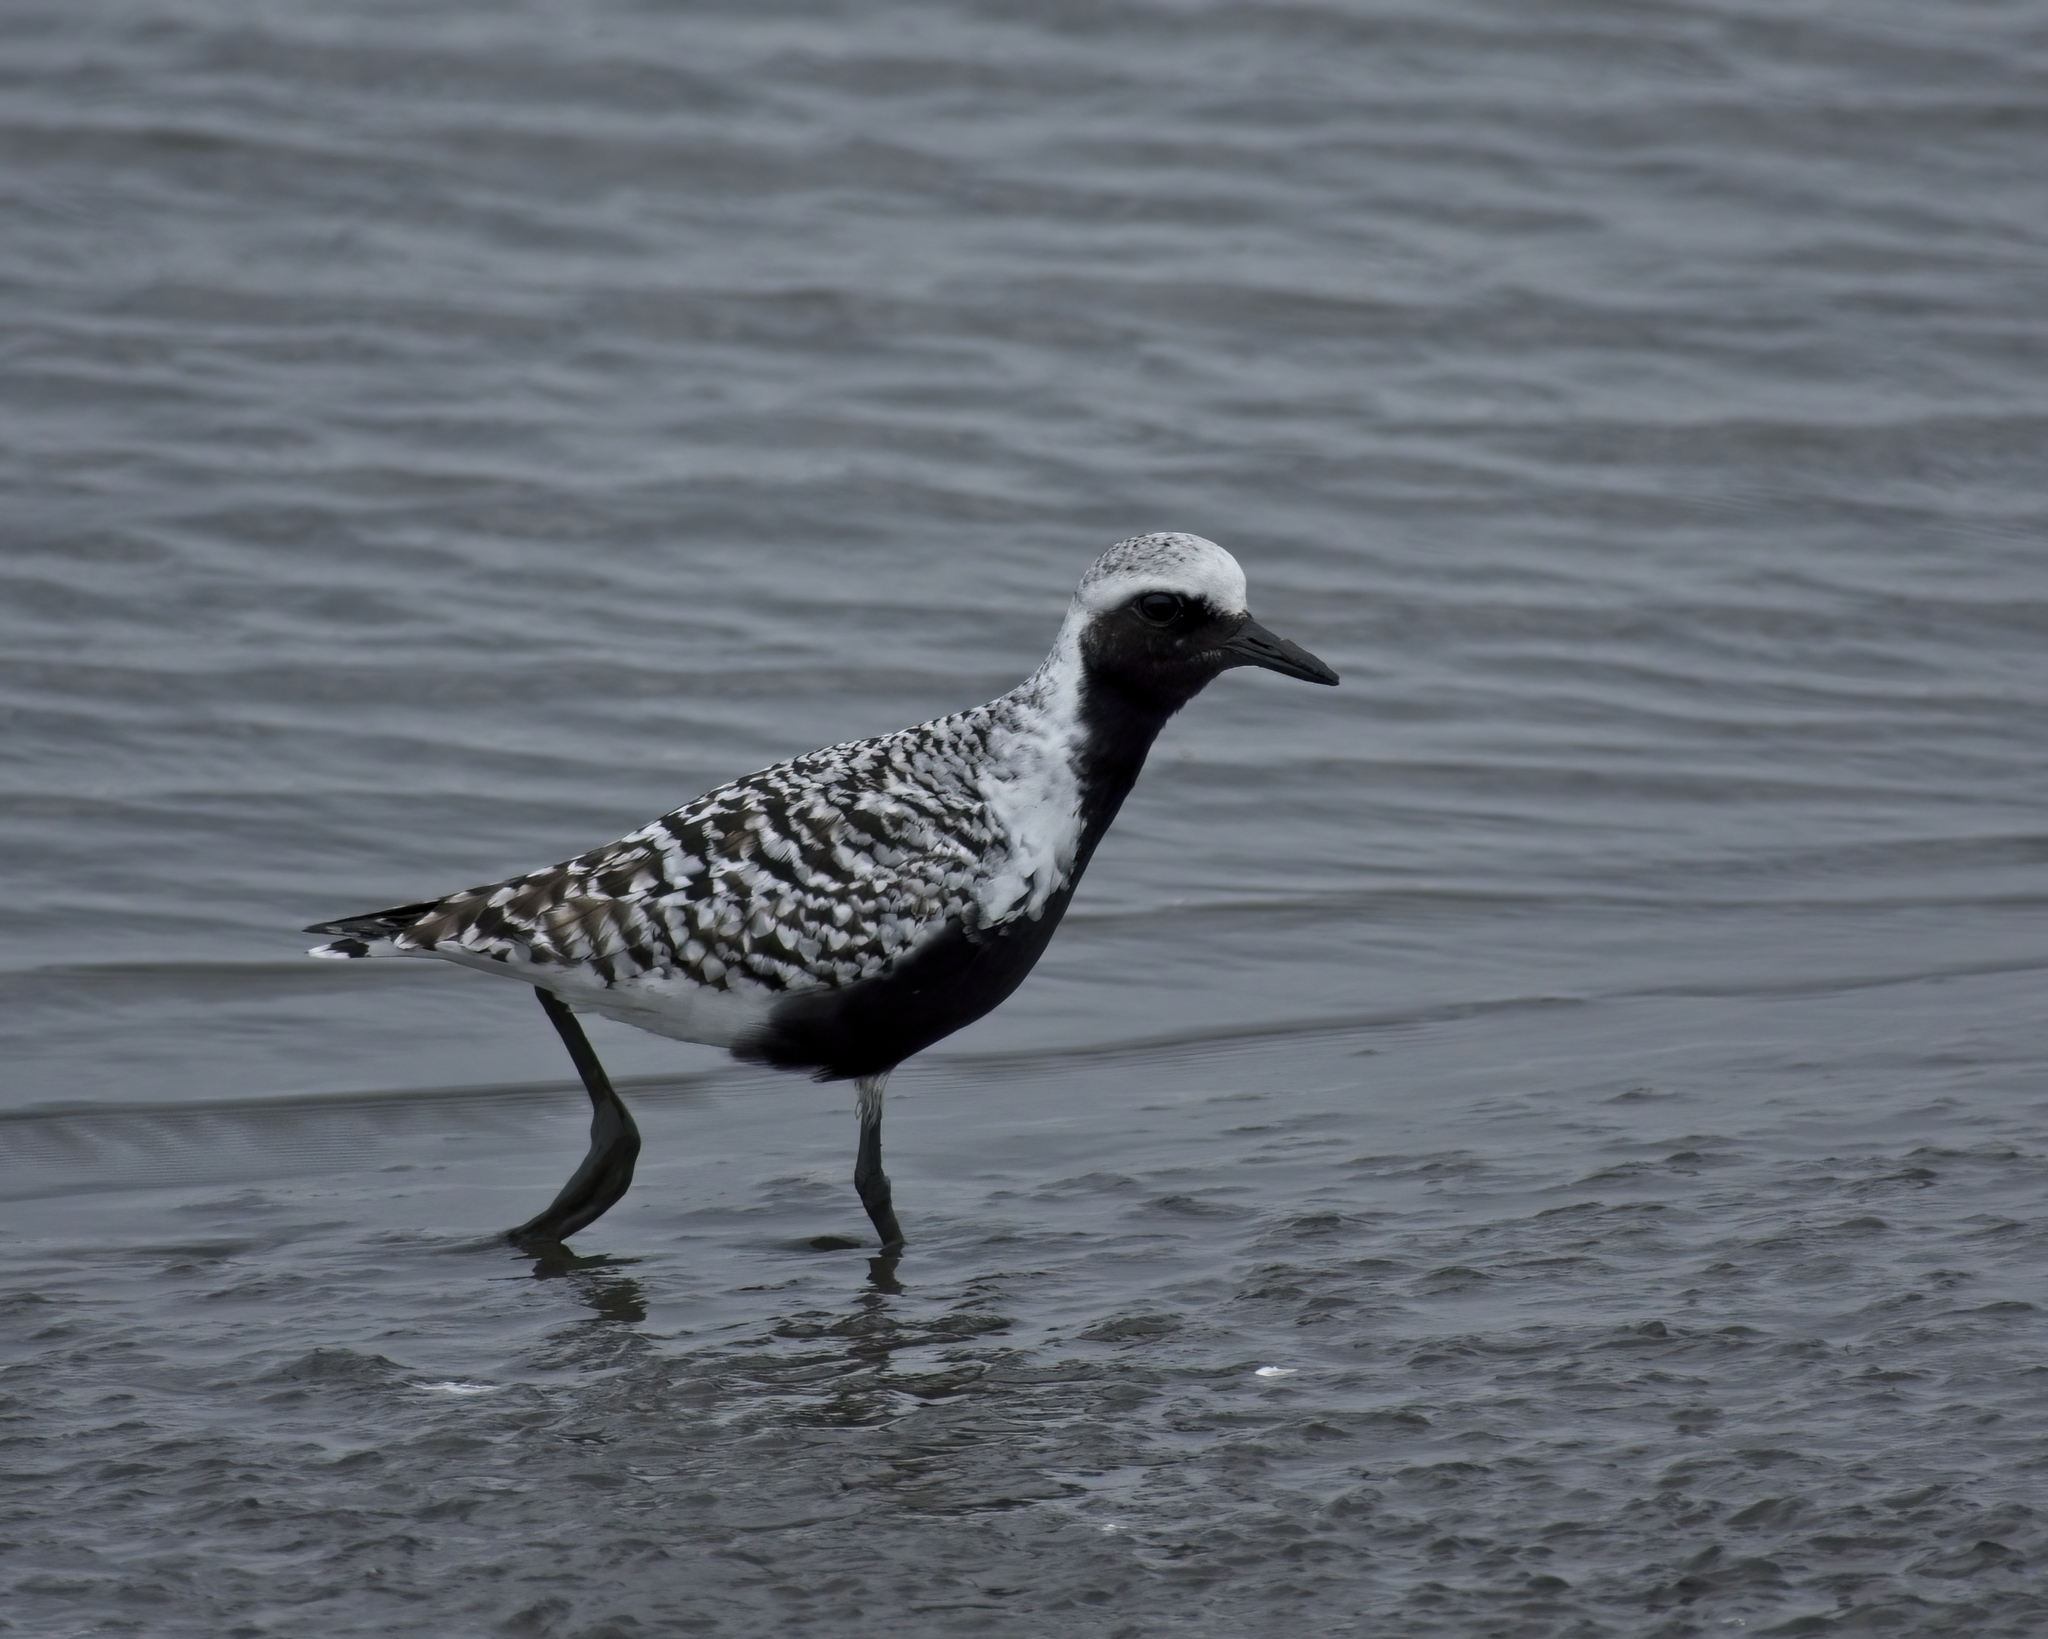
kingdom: Animalia
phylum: Chordata
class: Aves
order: Charadriiformes
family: Charadriidae
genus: Pluvialis
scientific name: Pluvialis squatarola
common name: Grey plover
